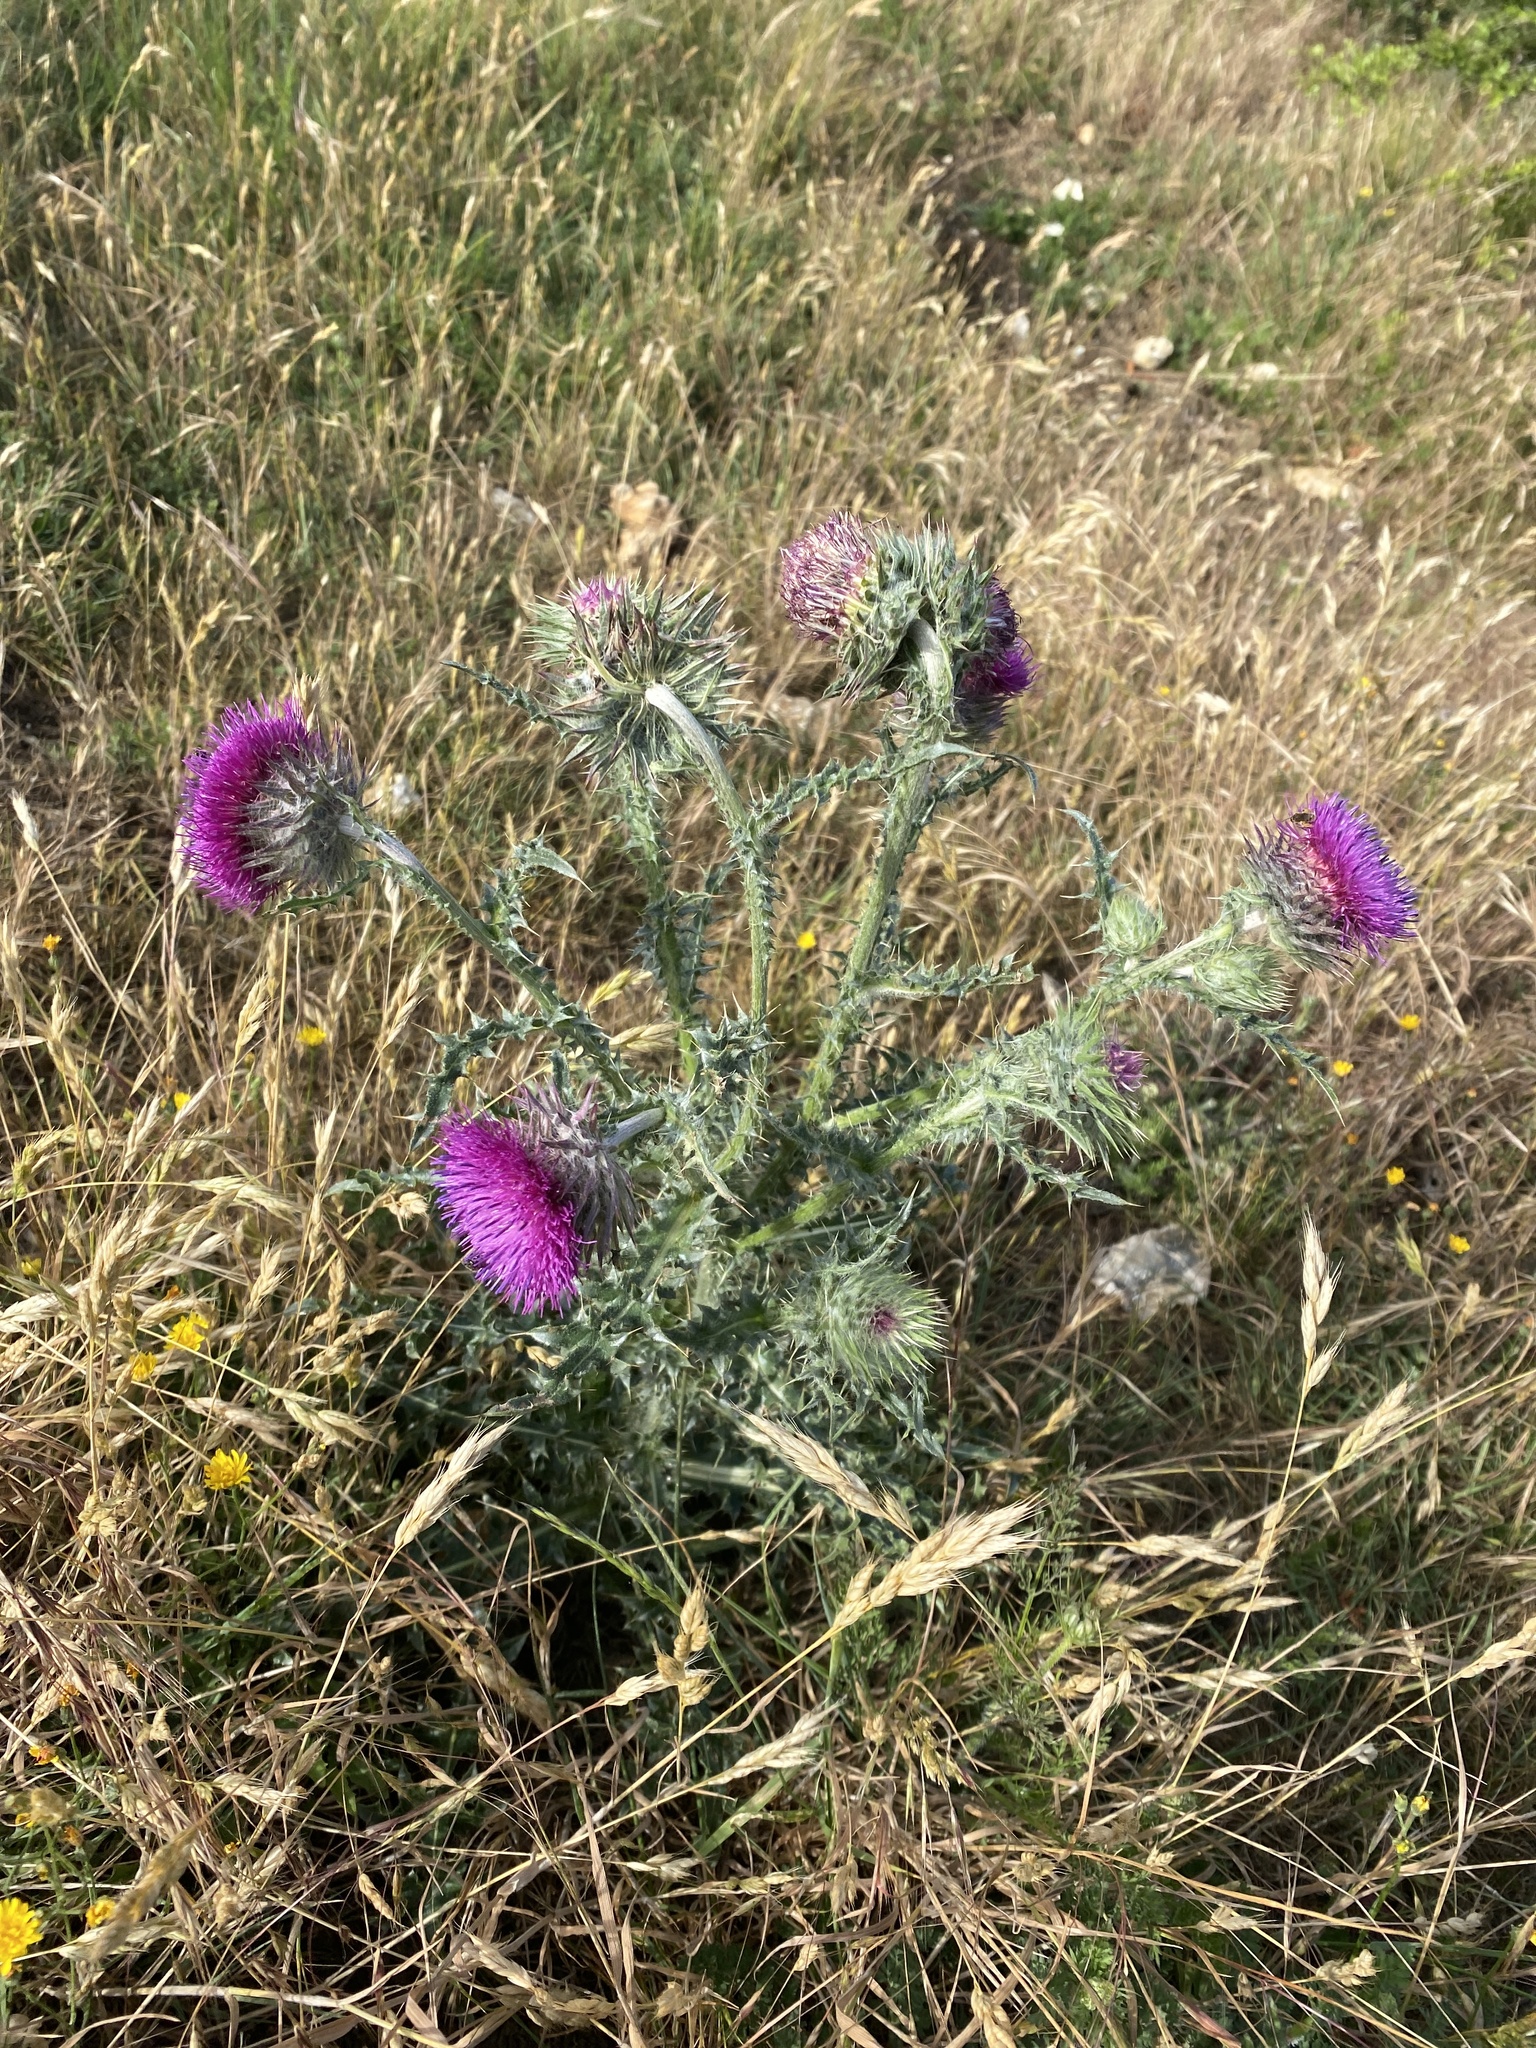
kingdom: Plantae
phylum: Tracheophyta
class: Magnoliopsida
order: Asterales
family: Asteraceae
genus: Carduus
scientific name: Carduus nutans
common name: Musk thistle
